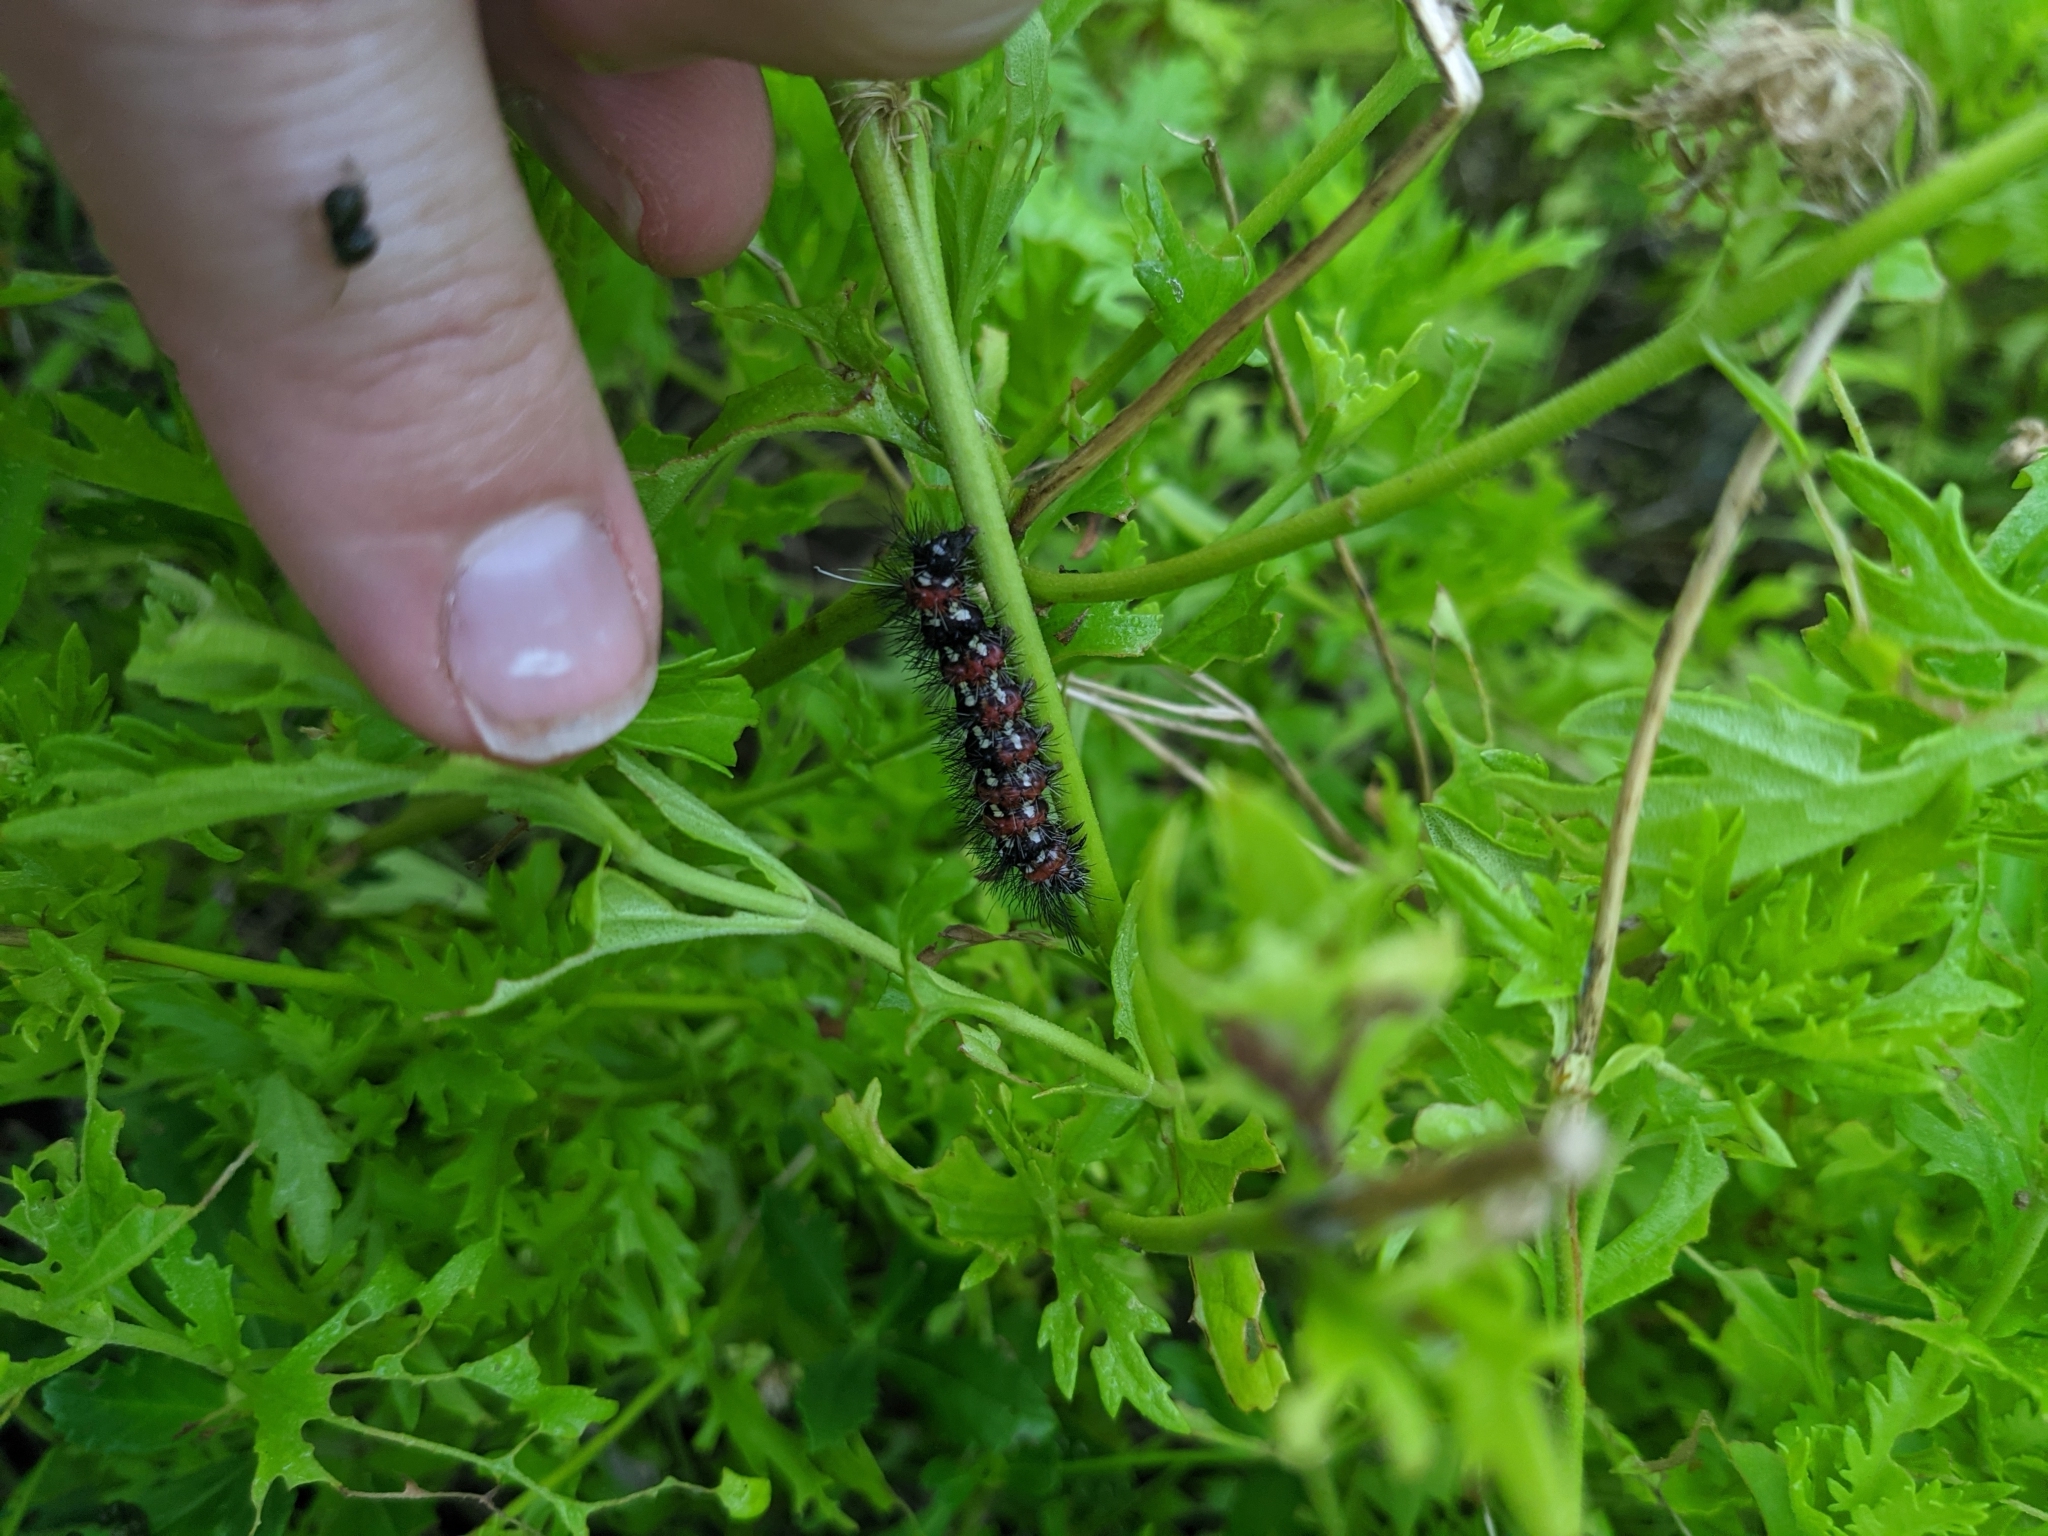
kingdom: Animalia
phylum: Arthropoda
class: Insecta
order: Lepidoptera
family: Erebidae
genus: Pareuchaetes
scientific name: Pareuchaetes insulata
